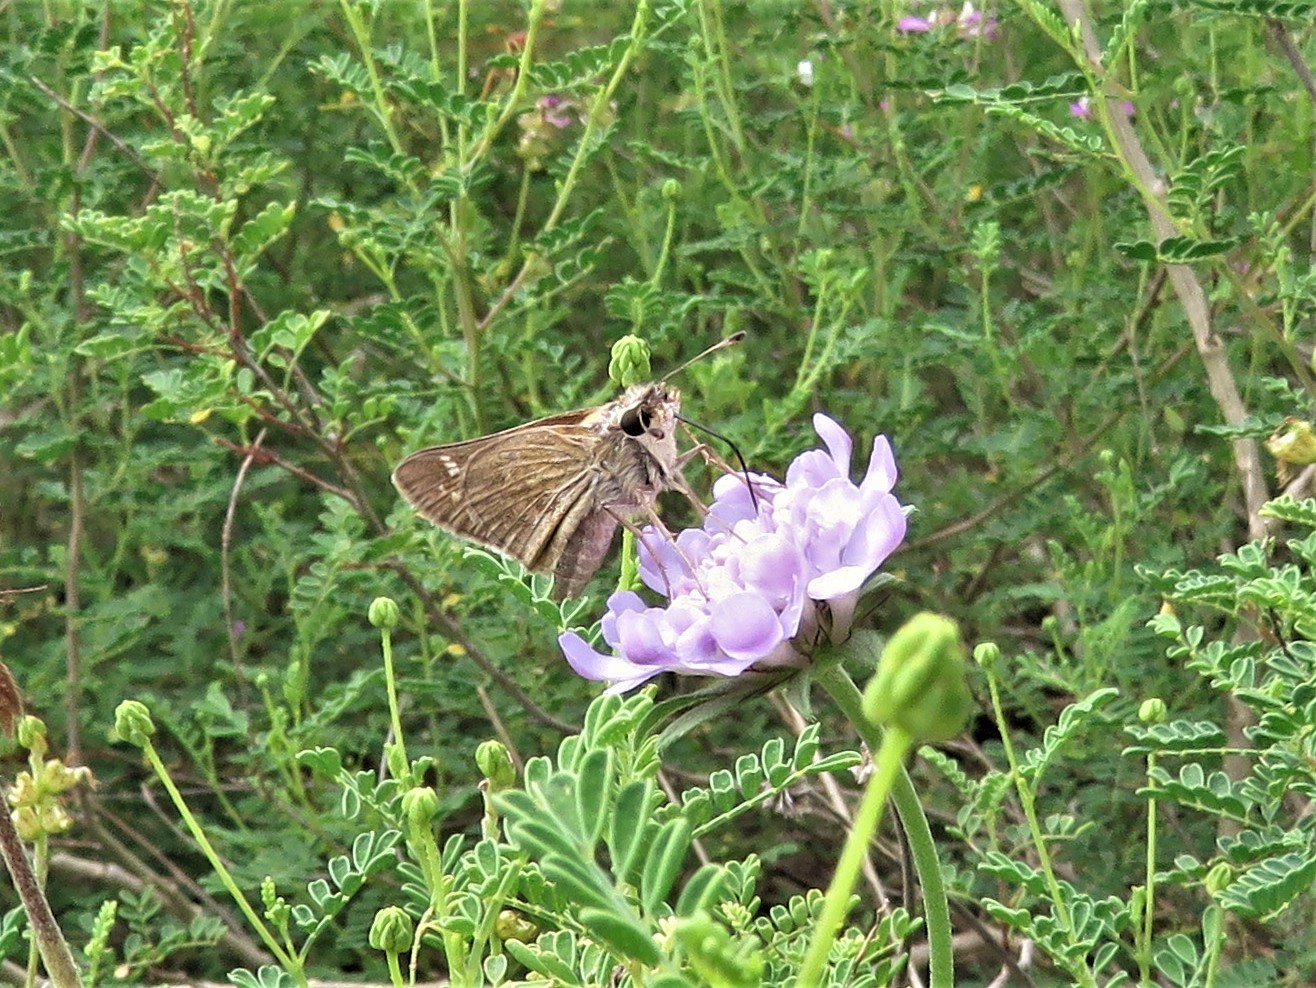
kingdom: Animalia
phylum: Arthropoda
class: Insecta
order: Lepidoptera
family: Hesperiidae
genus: Atalopedes
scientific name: Atalopedes
